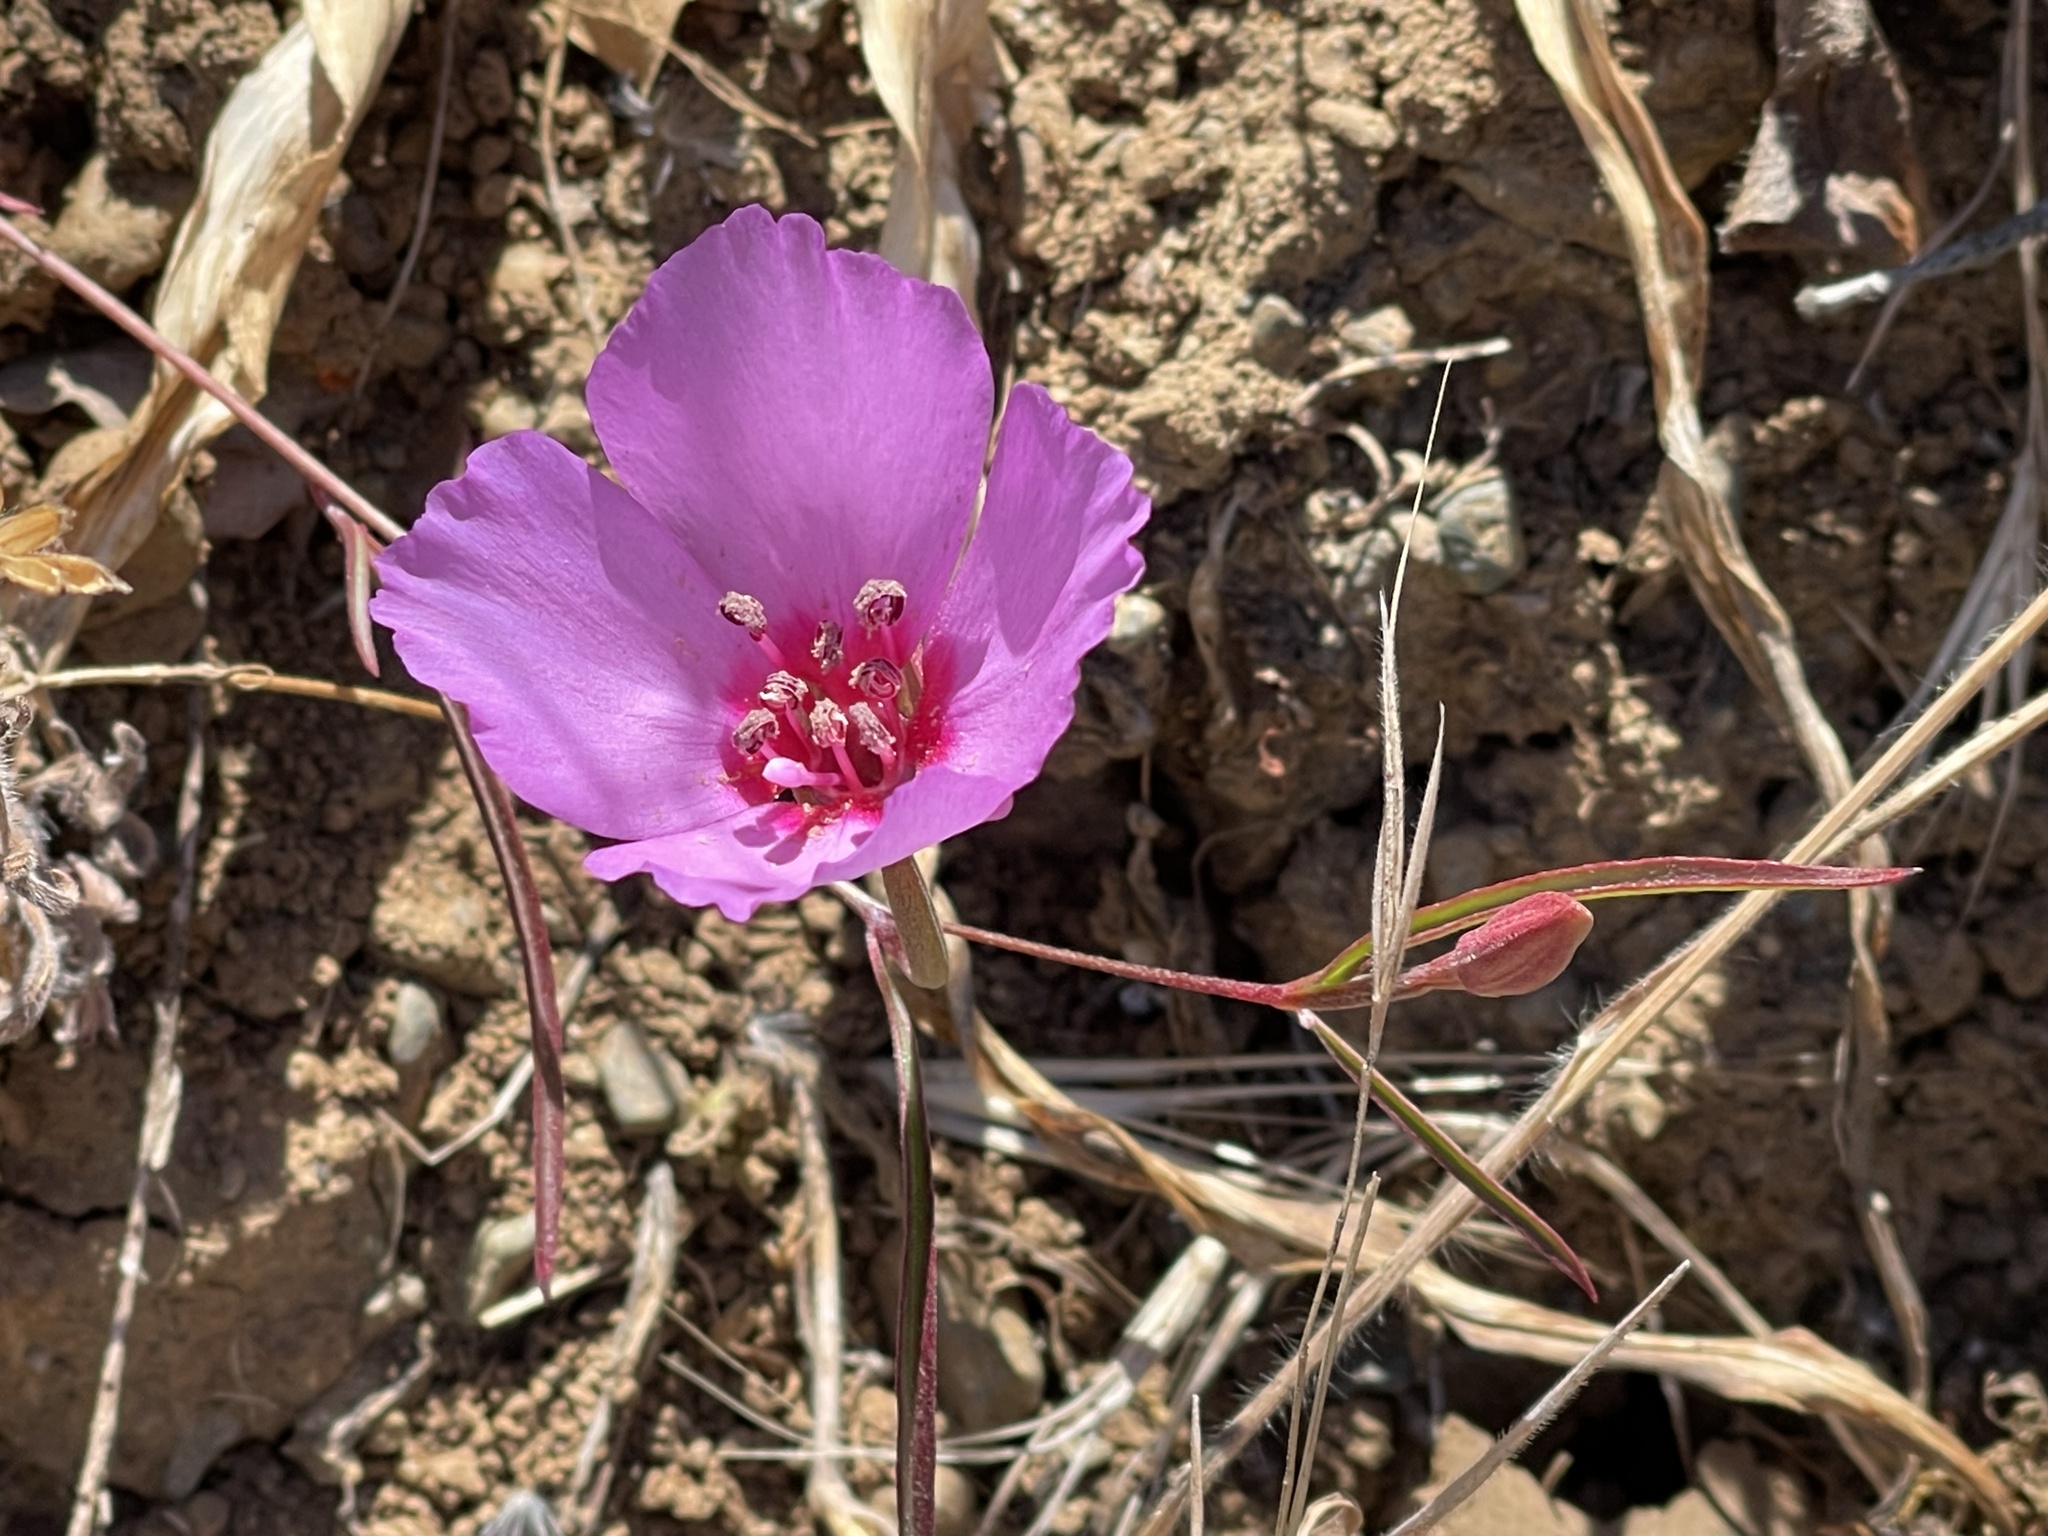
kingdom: Plantae
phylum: Tracheophyta
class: Magnoliopsida
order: Myrtales
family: Onagraceae
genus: Clarkia
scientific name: Clarkia rubicunda
